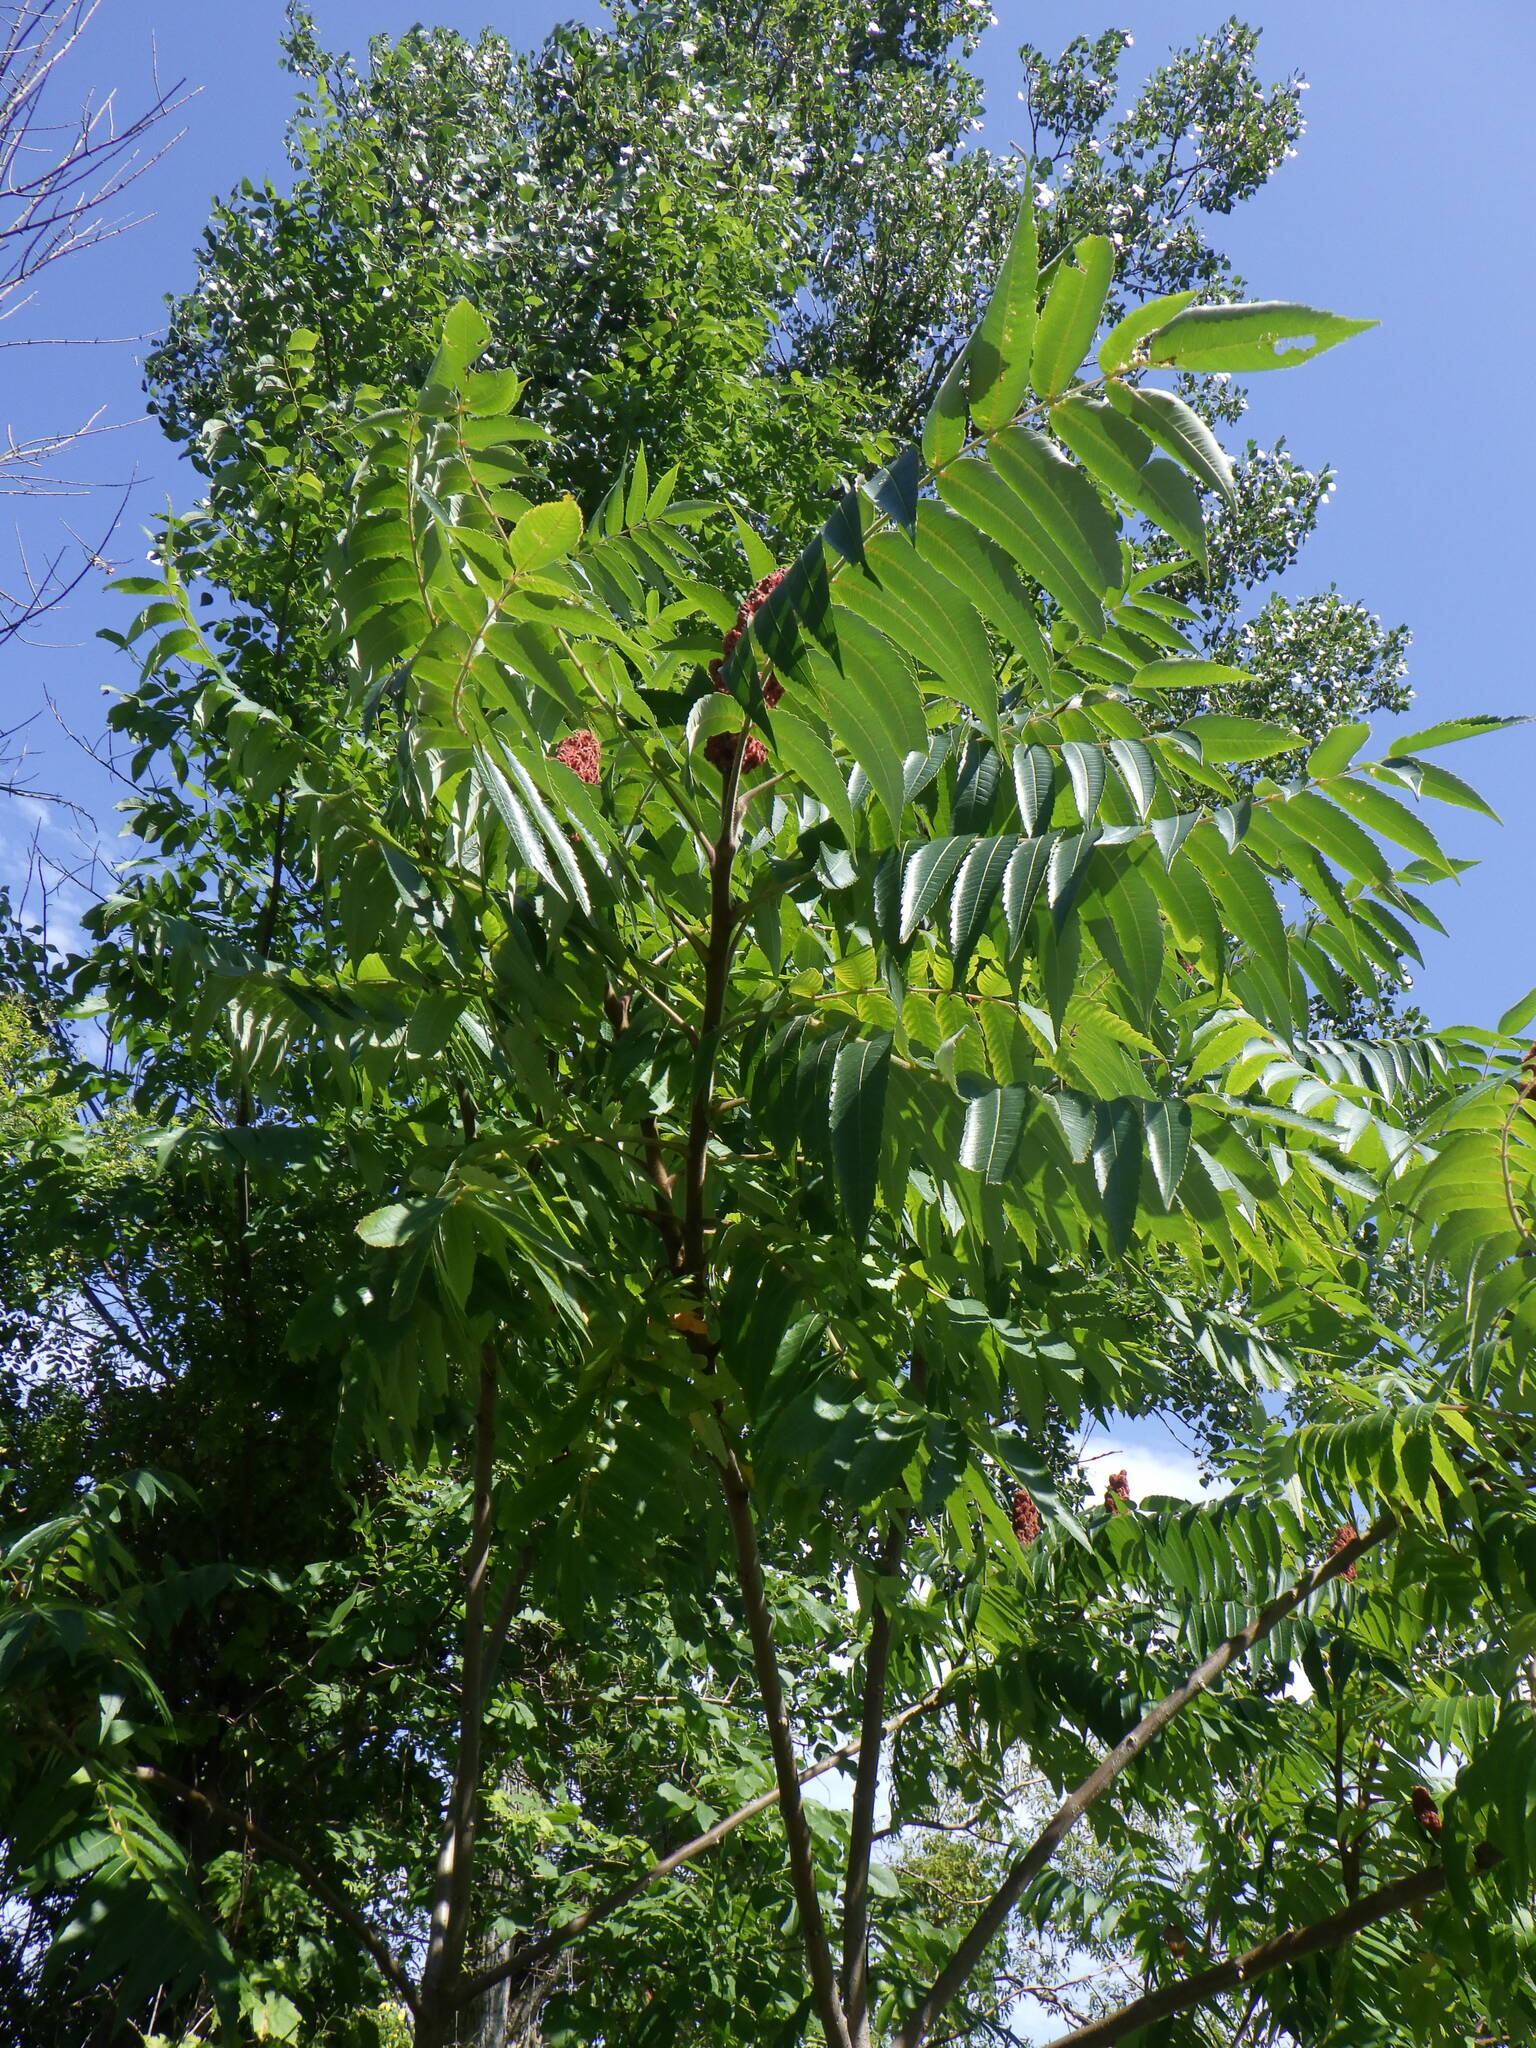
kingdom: Plantae
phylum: Tracheophyta
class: Magnoliopsida
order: Sapindales
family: Anacardiaceae
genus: Rhus
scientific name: Rhus typhina
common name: Staghorn sumac
